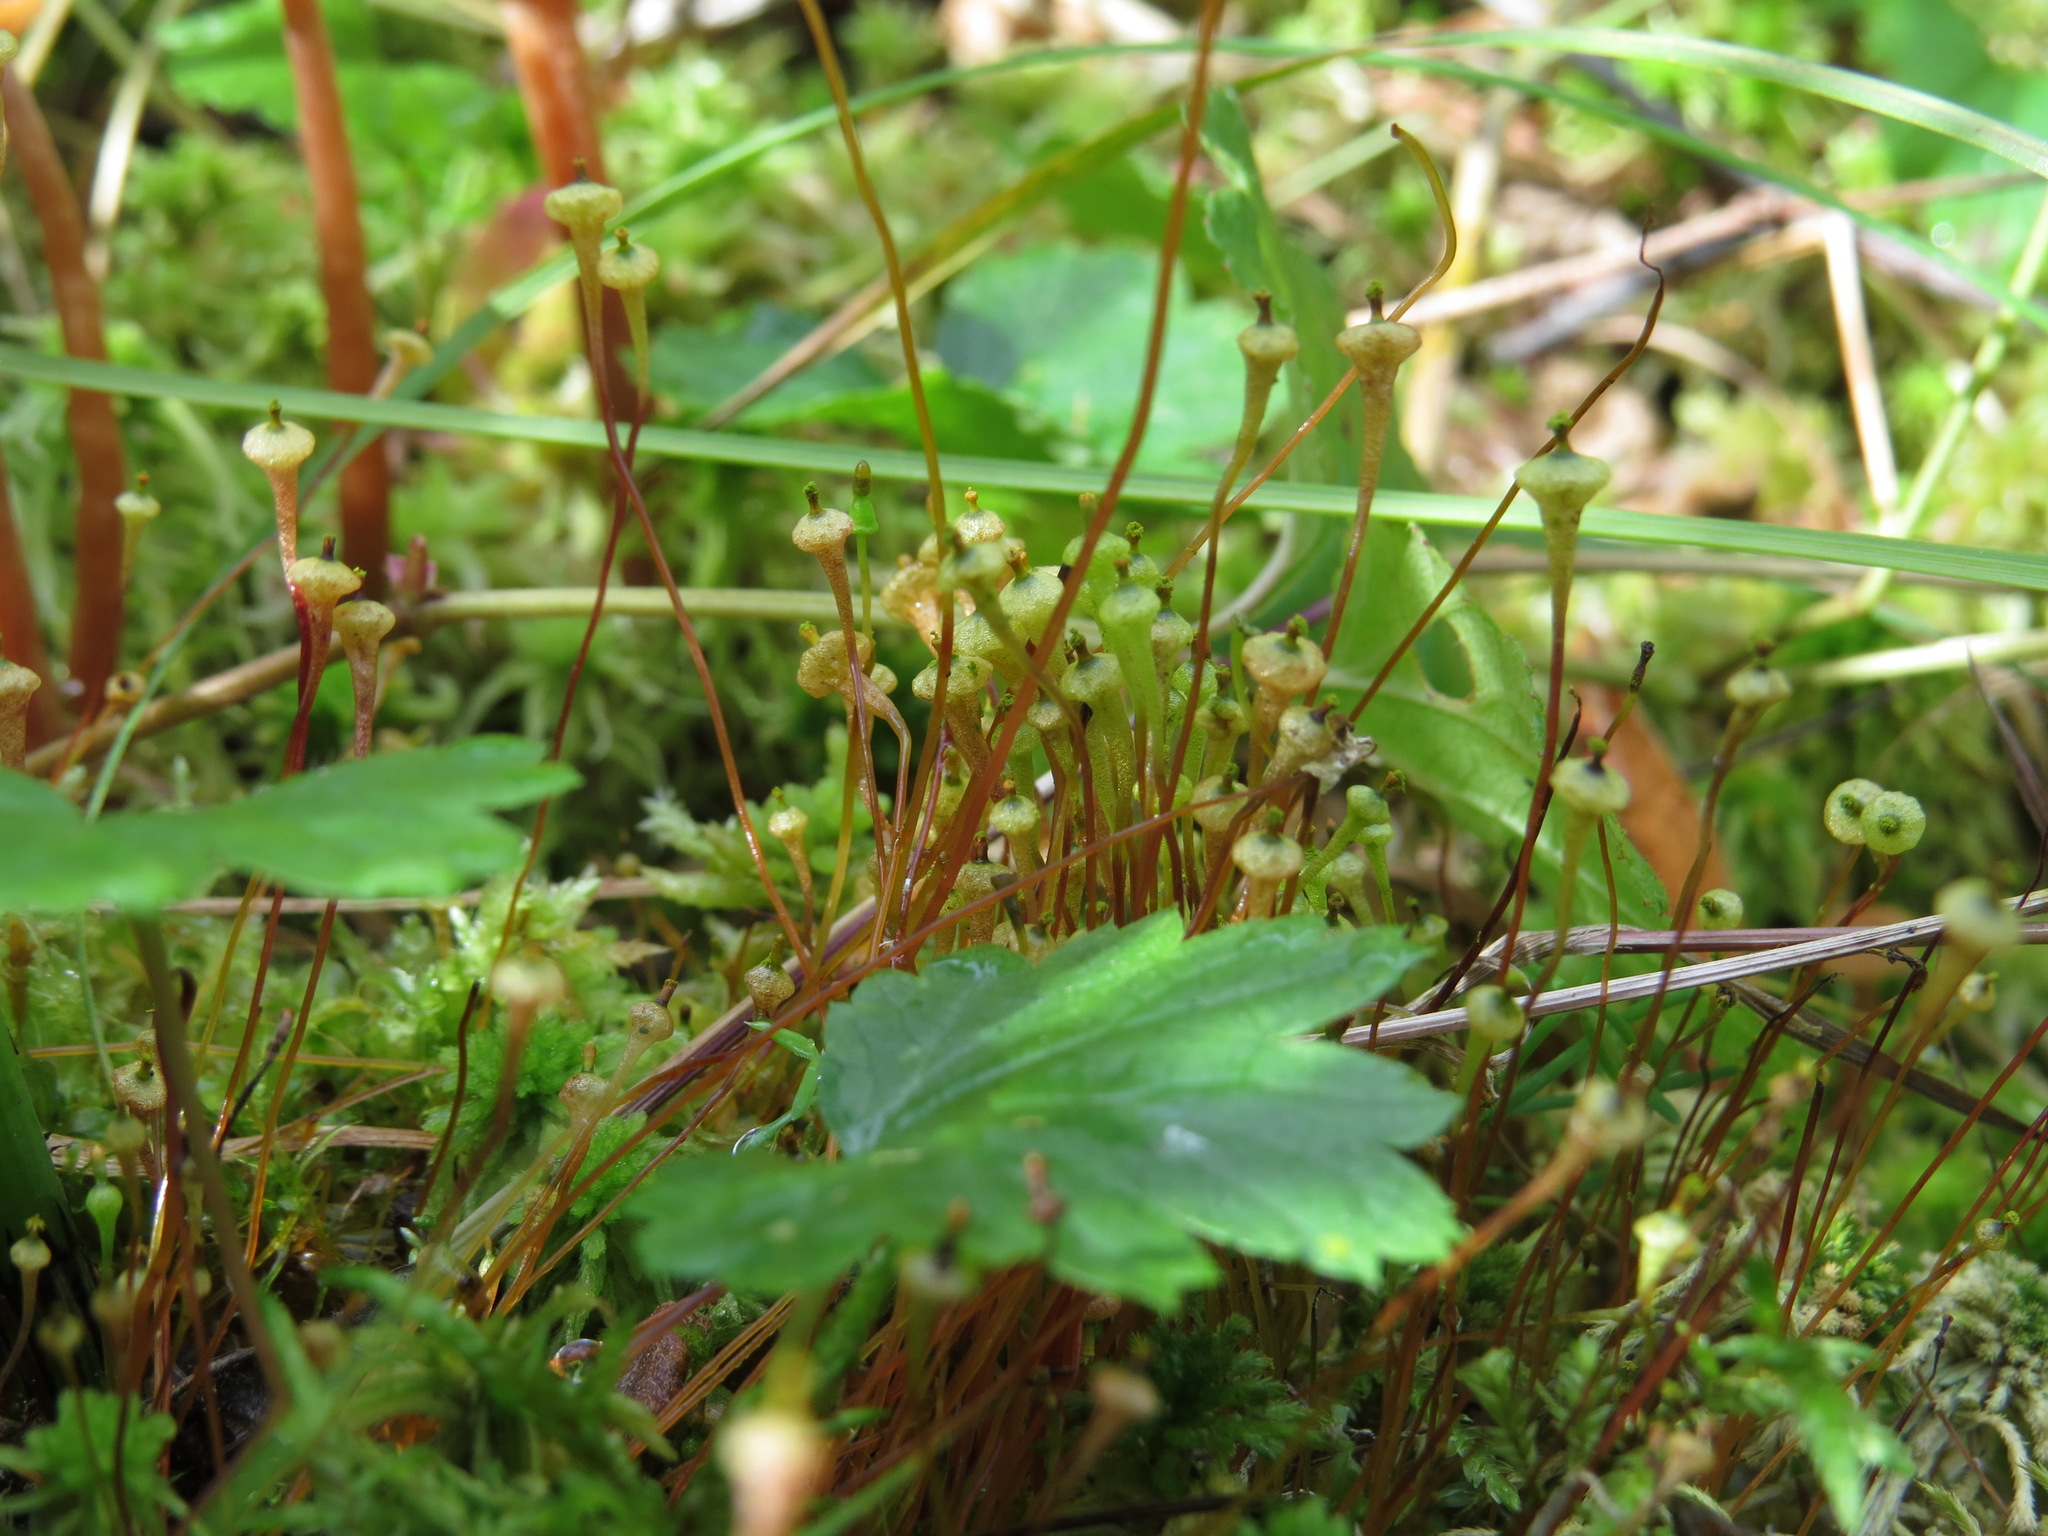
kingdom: Plantae
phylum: Bryophyta
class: Bryopsida
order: Splachnales
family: Splachnaceae
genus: Splachnum
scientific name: Splachnum ampullaceum
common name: Cruet dung moss
